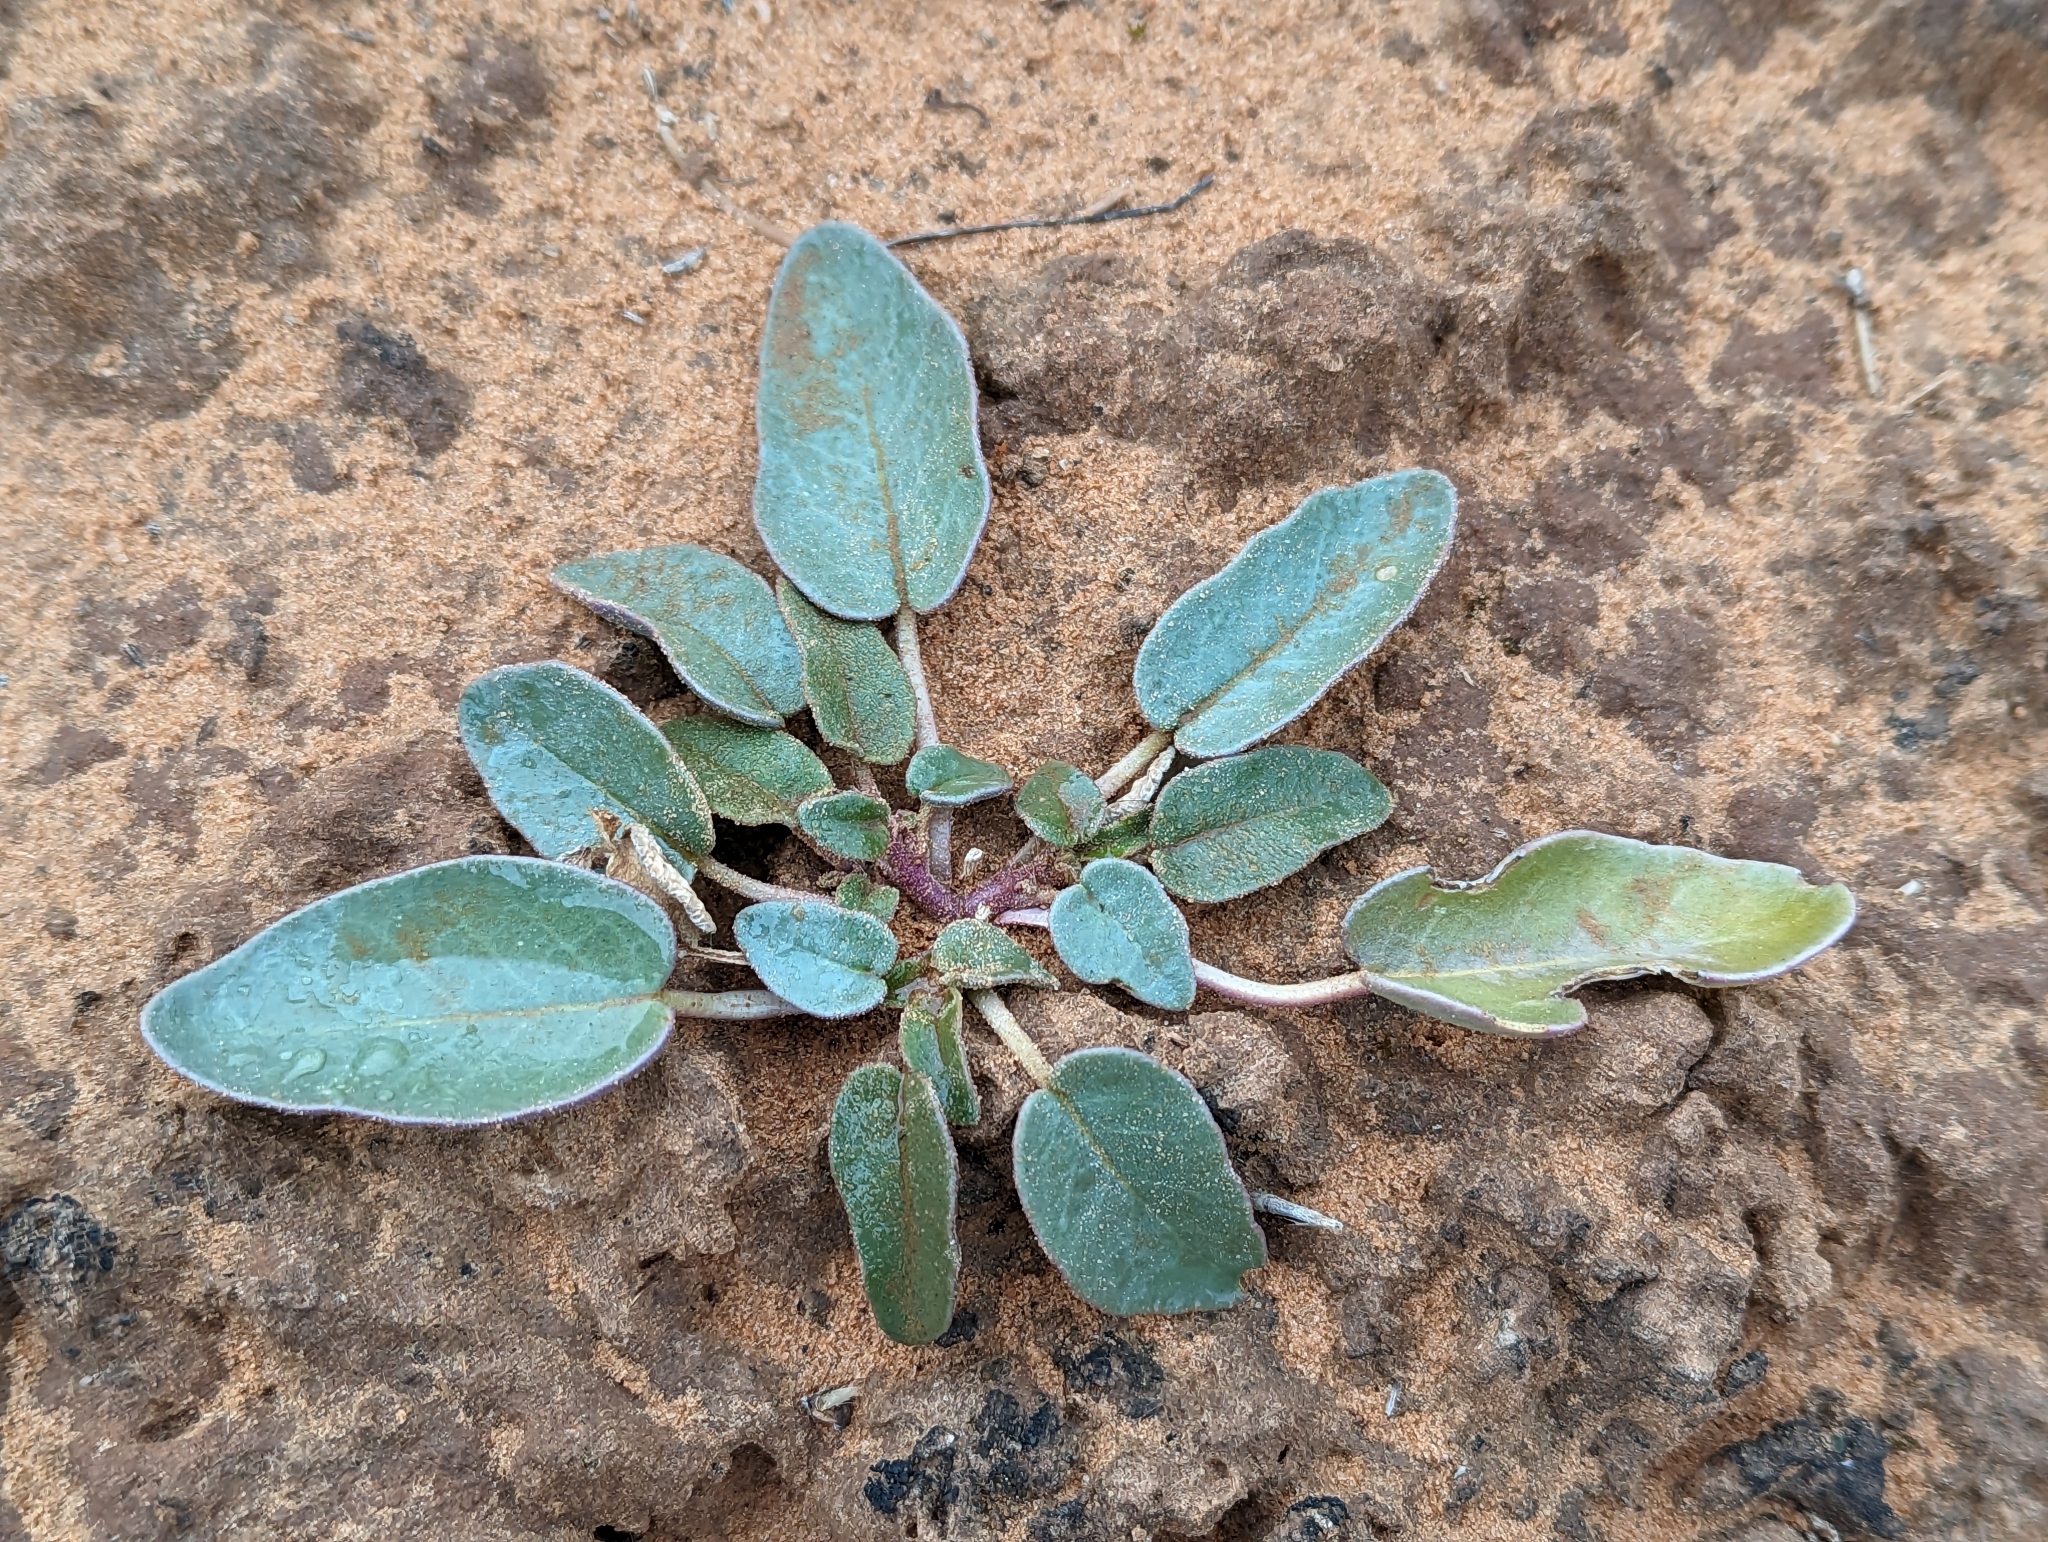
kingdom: Plantae
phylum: Tracheophyta
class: Magnoliopsida
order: Caryophyllales
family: Nyctaginaceae
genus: Abronia
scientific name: Abronia elliptica
